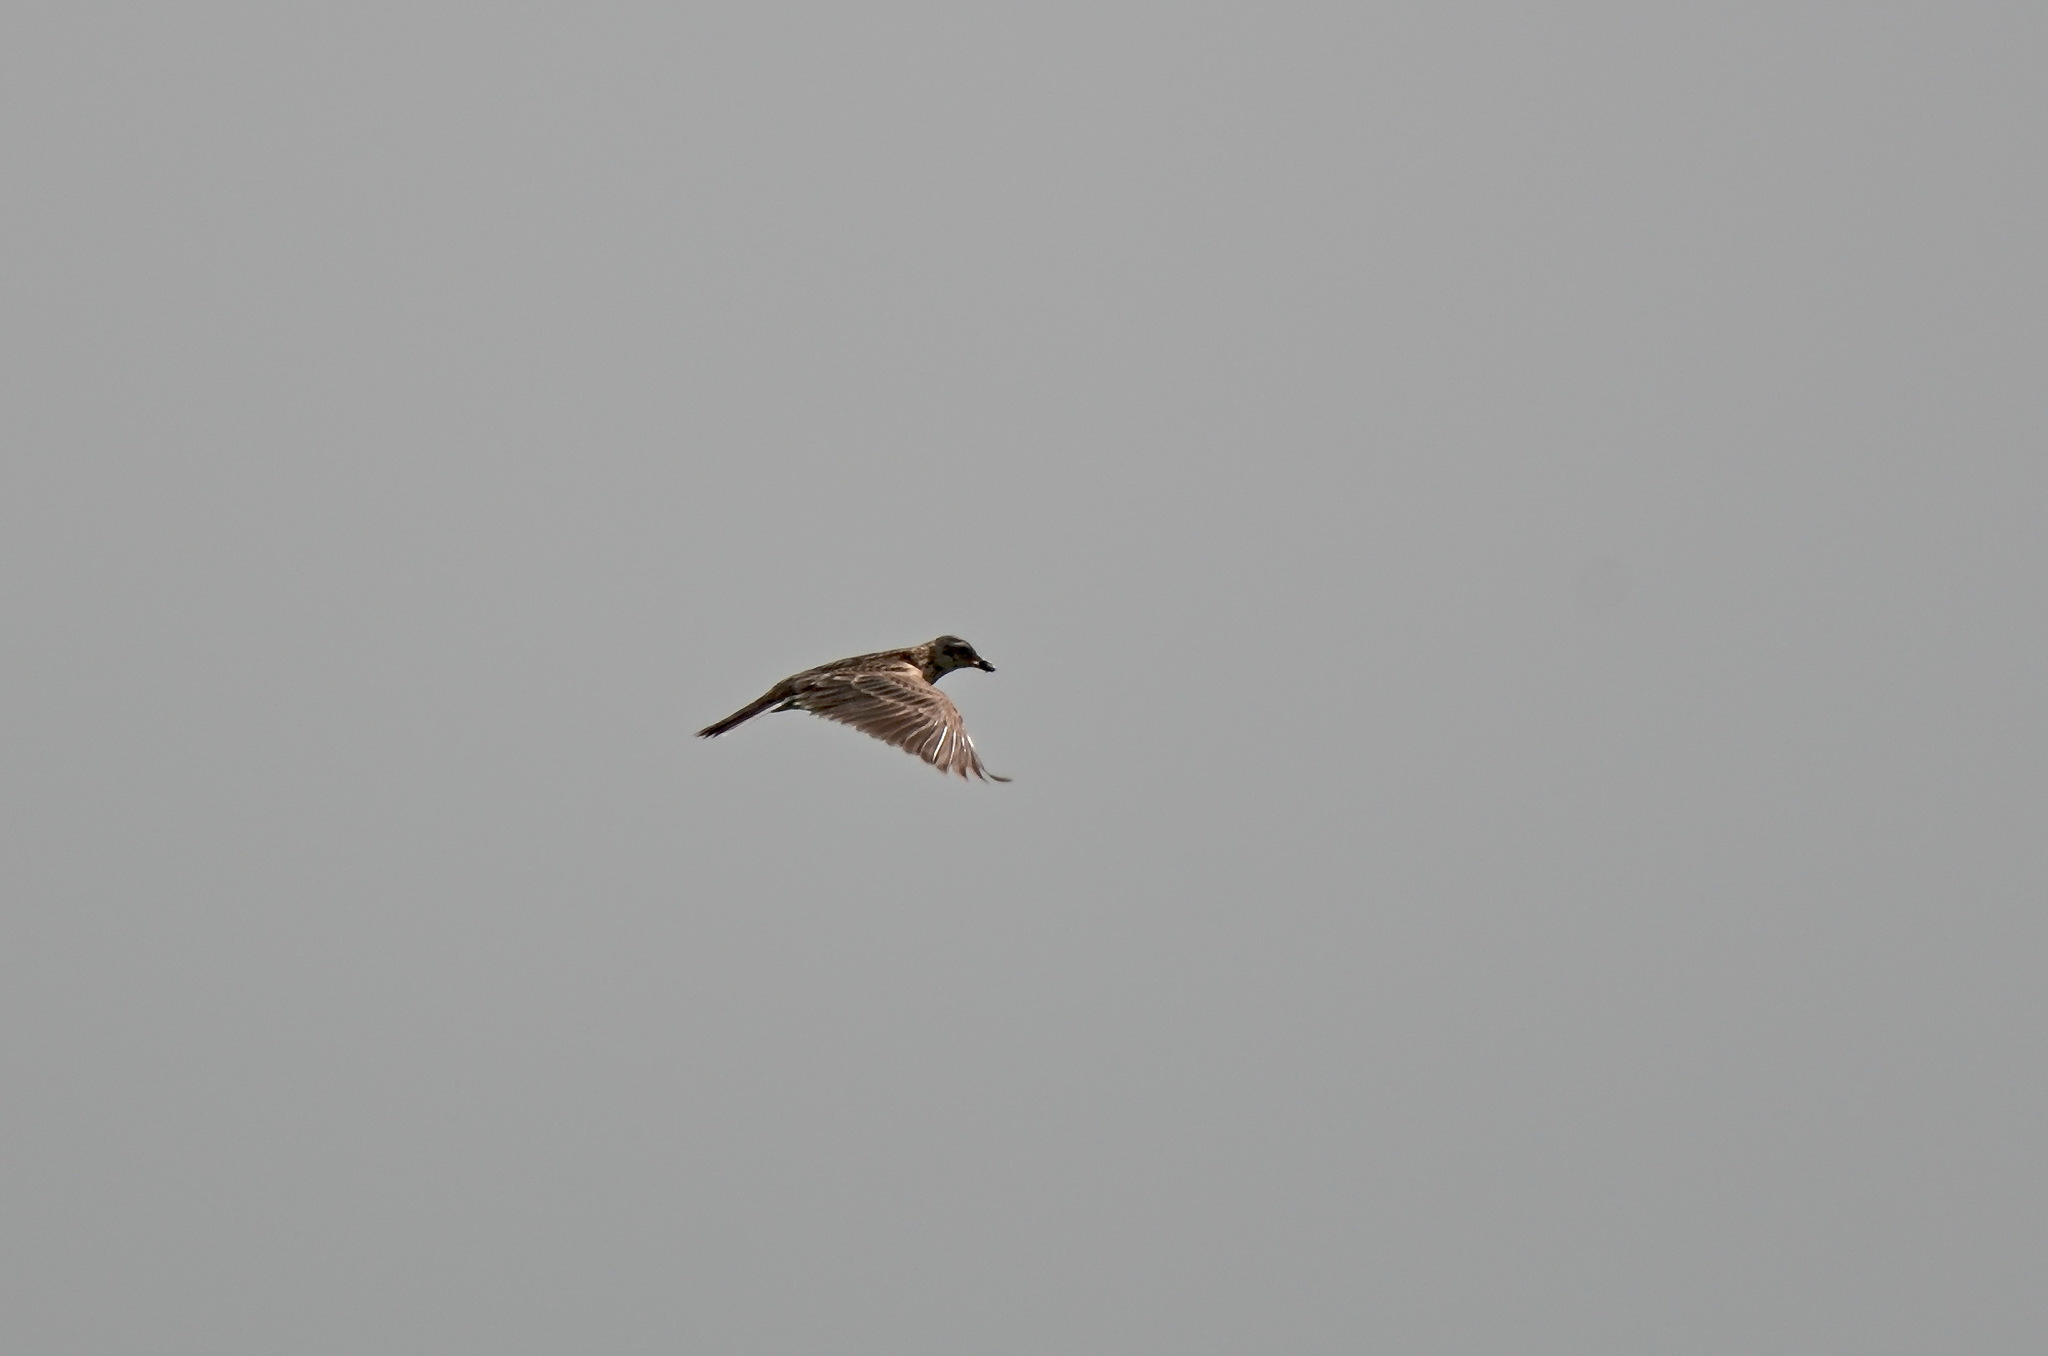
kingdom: Animalia
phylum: Chordata
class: Aves
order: Passeriformes
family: Alaudidae
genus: Alauda
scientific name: Alauda arvensis
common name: Eurasian skylark
